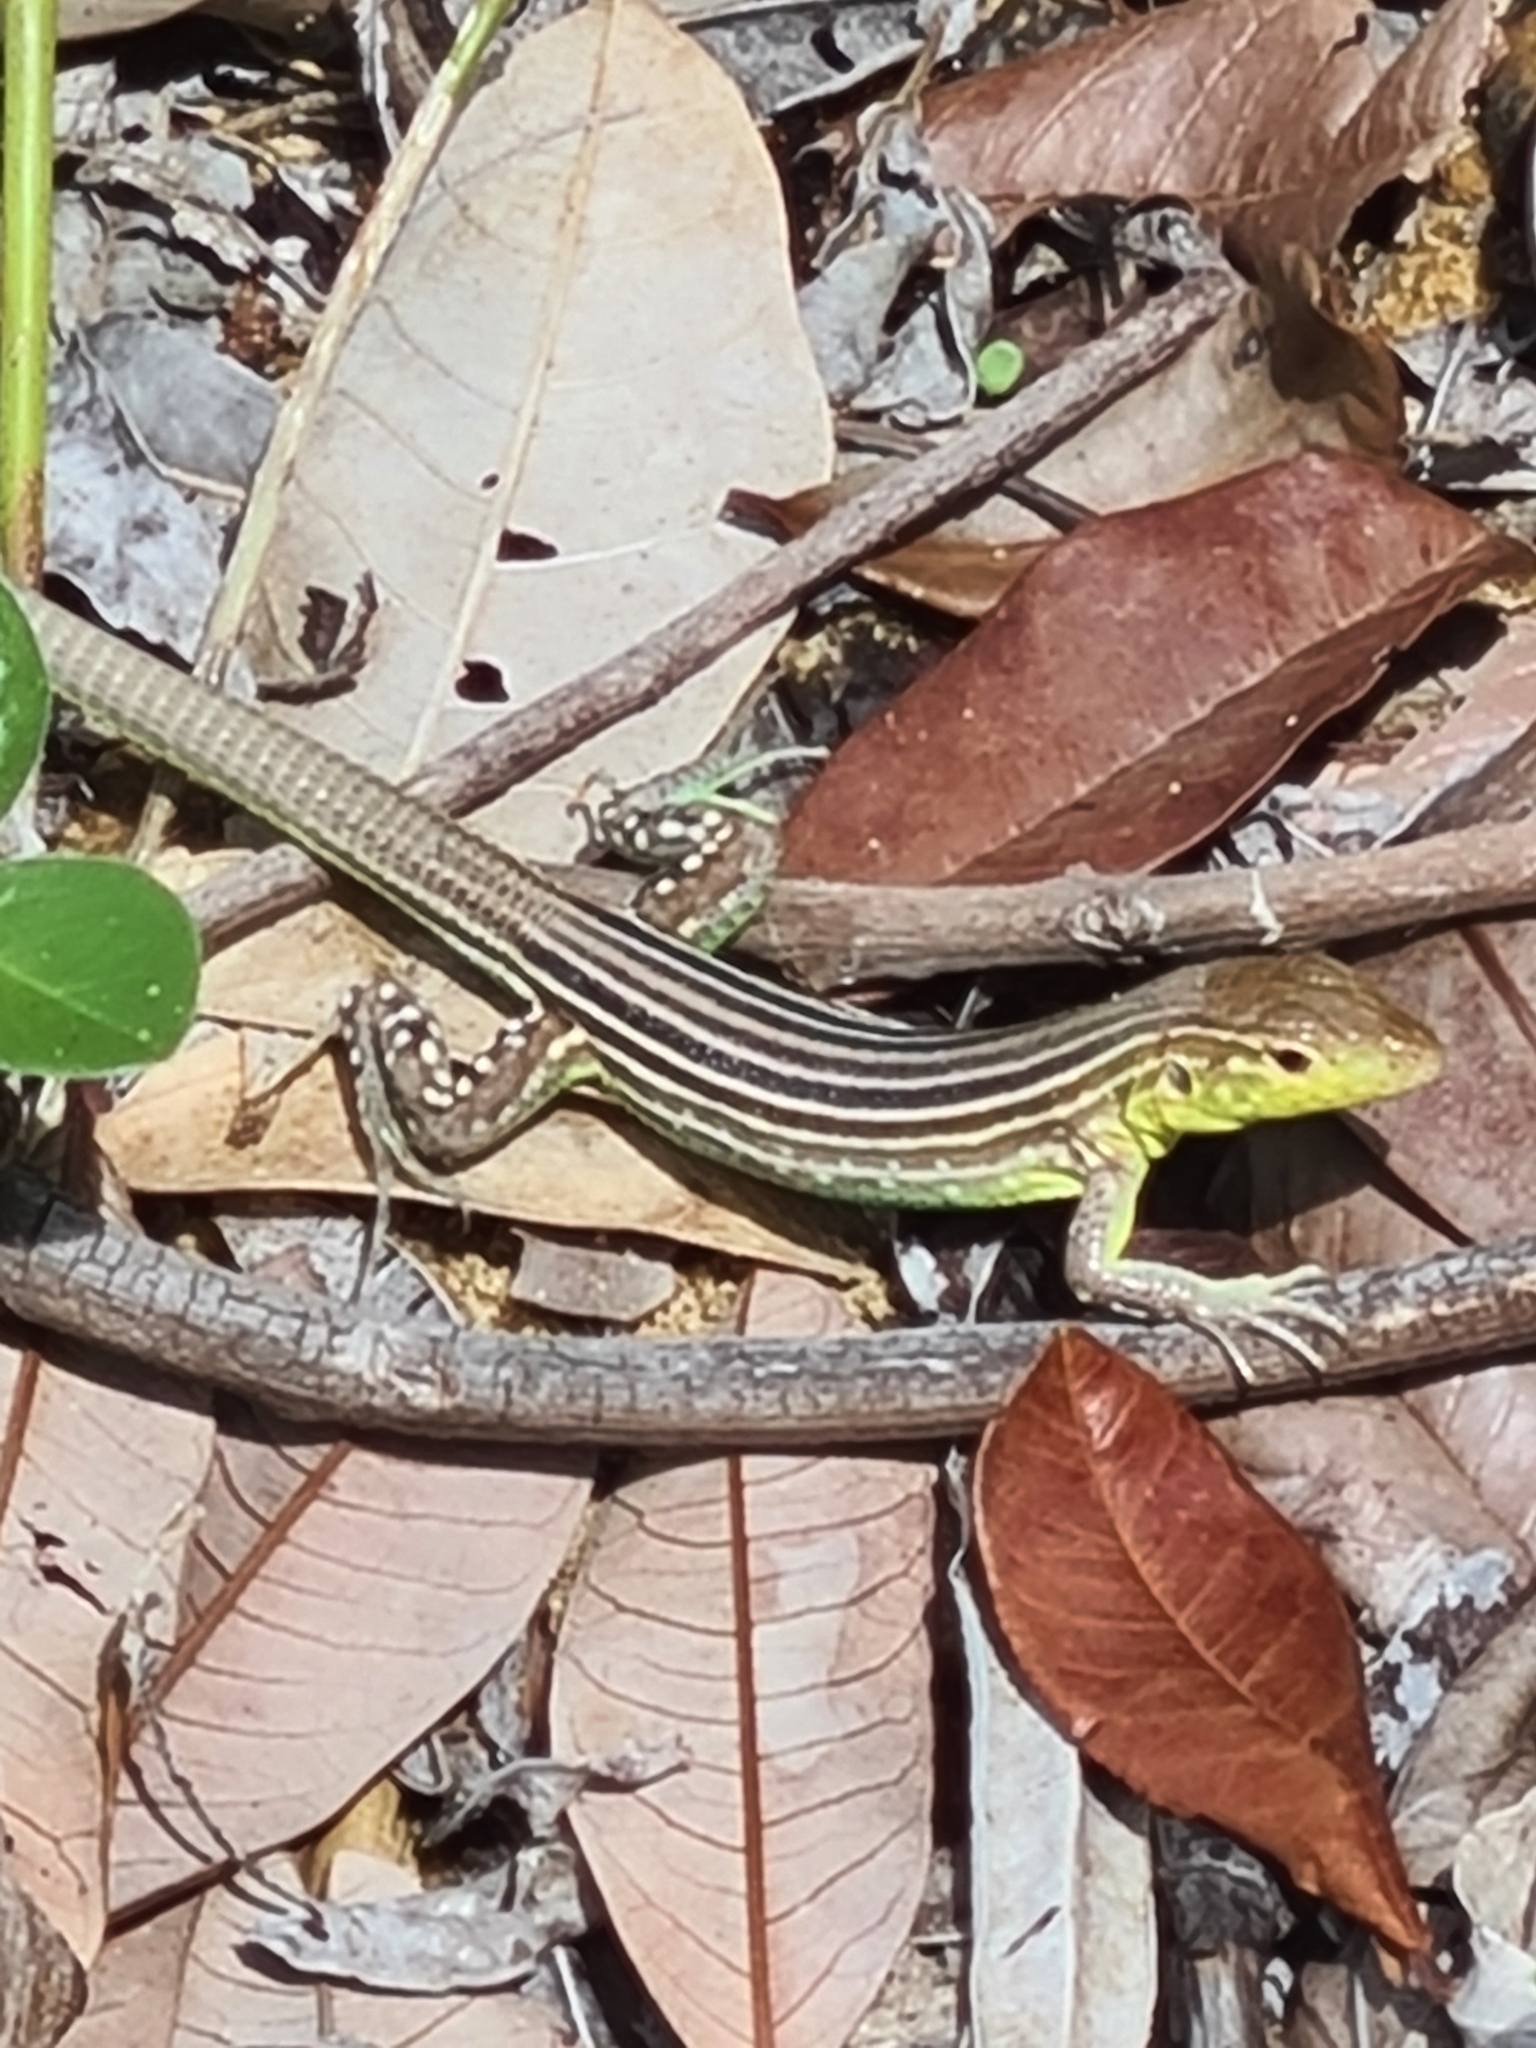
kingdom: Animalia
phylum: Chordata
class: Squamata
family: Teiidae
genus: Cnemidophorus
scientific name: Cnemidophorus lemniscatus
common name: Rainbow whiptail
